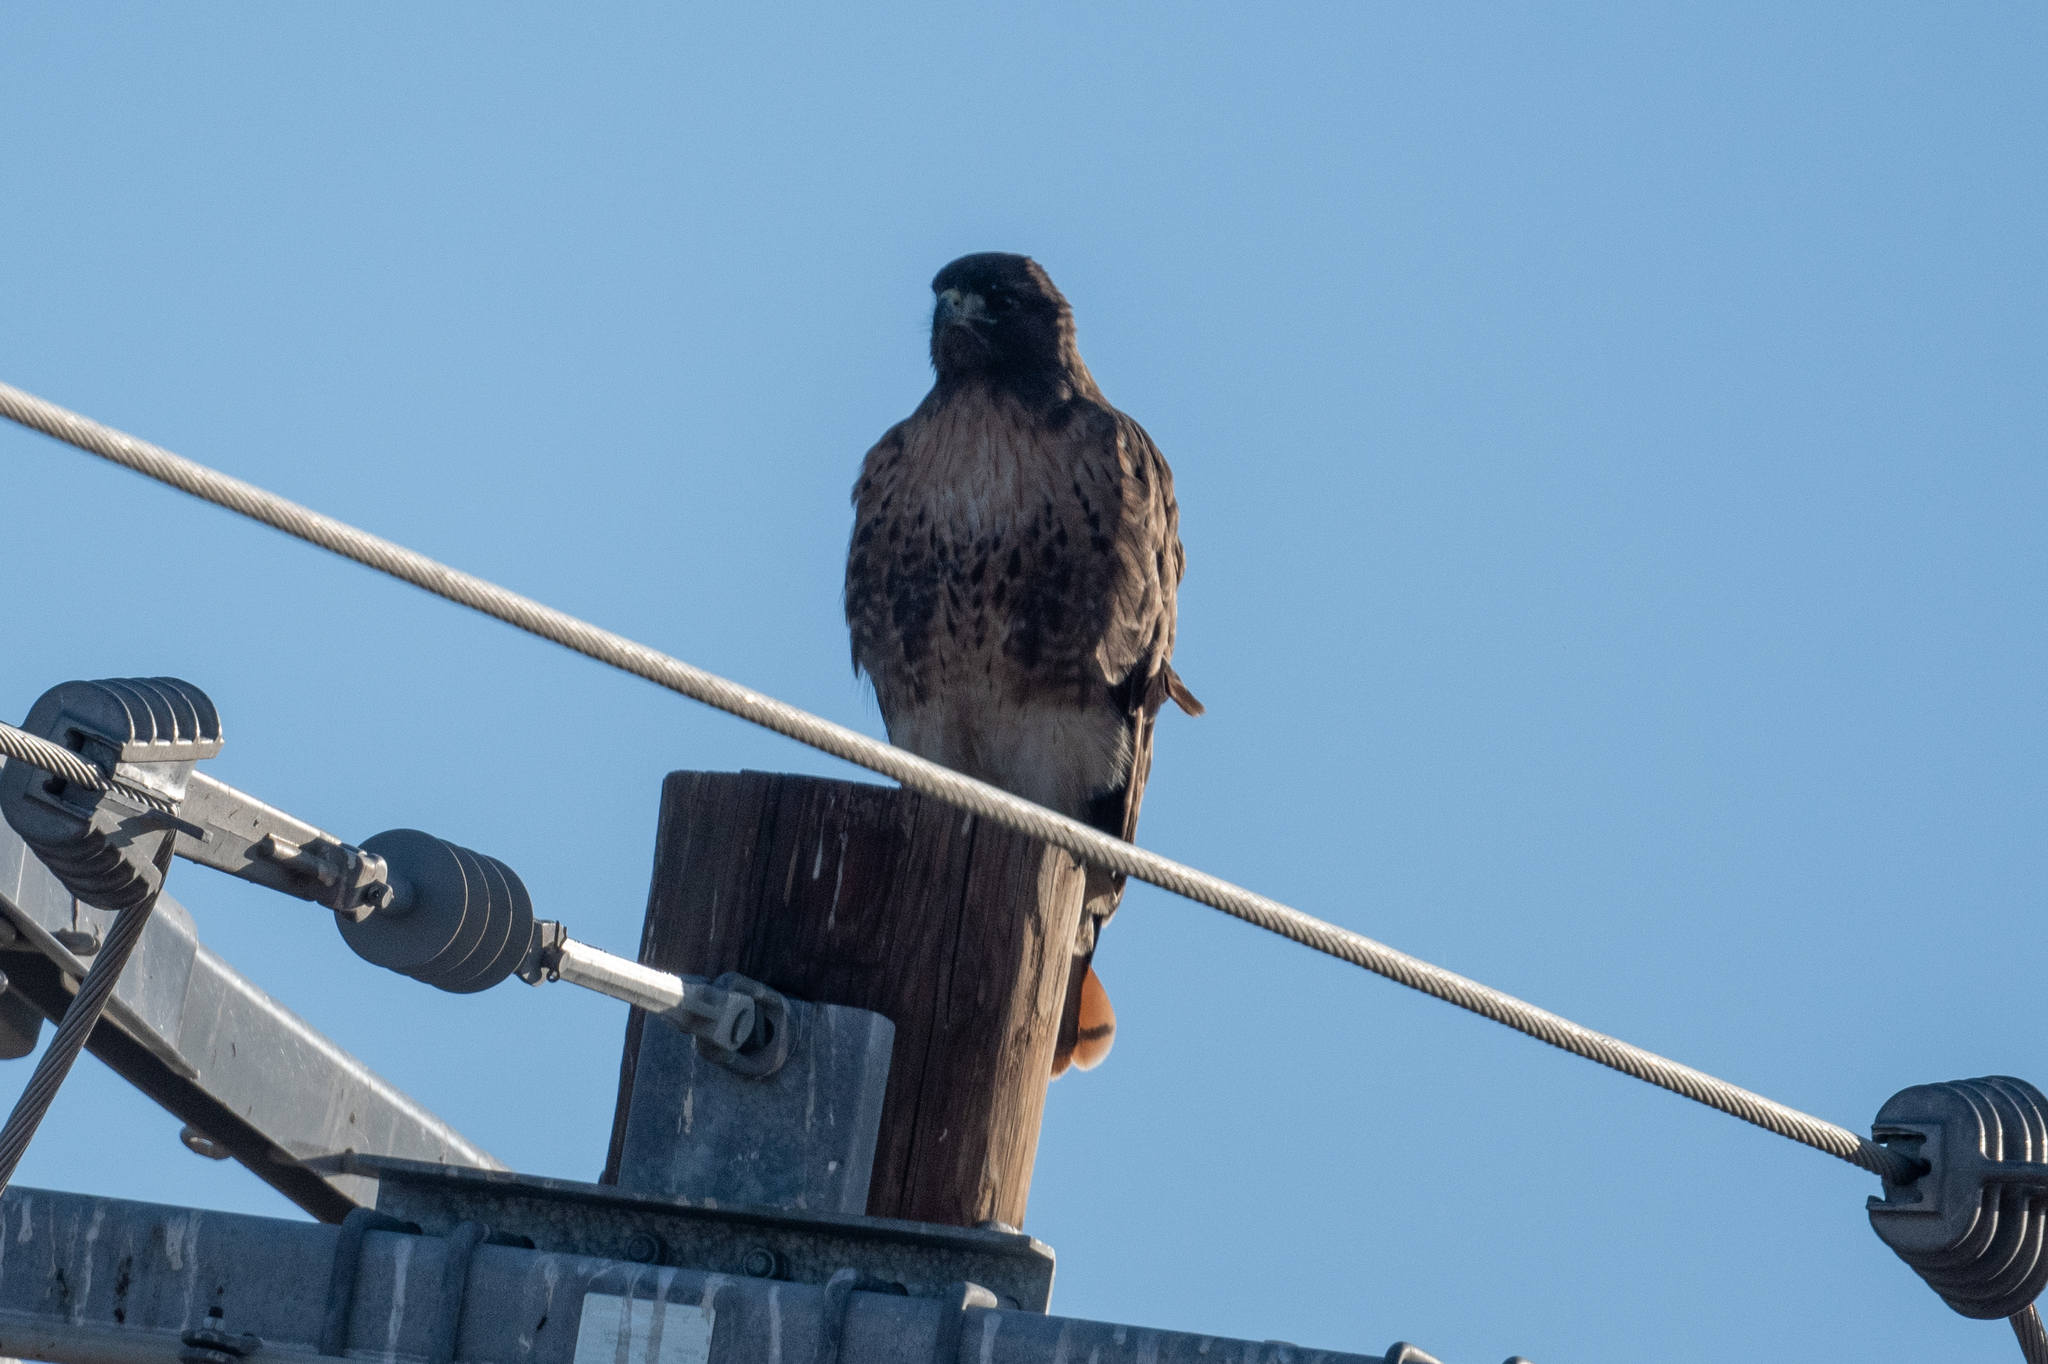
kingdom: Animalia
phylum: Chordata
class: Aves
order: Accipitriformes
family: Accipitridae
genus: Buteo
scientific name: Buteo jamaicensis
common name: Red-tailed hawk
